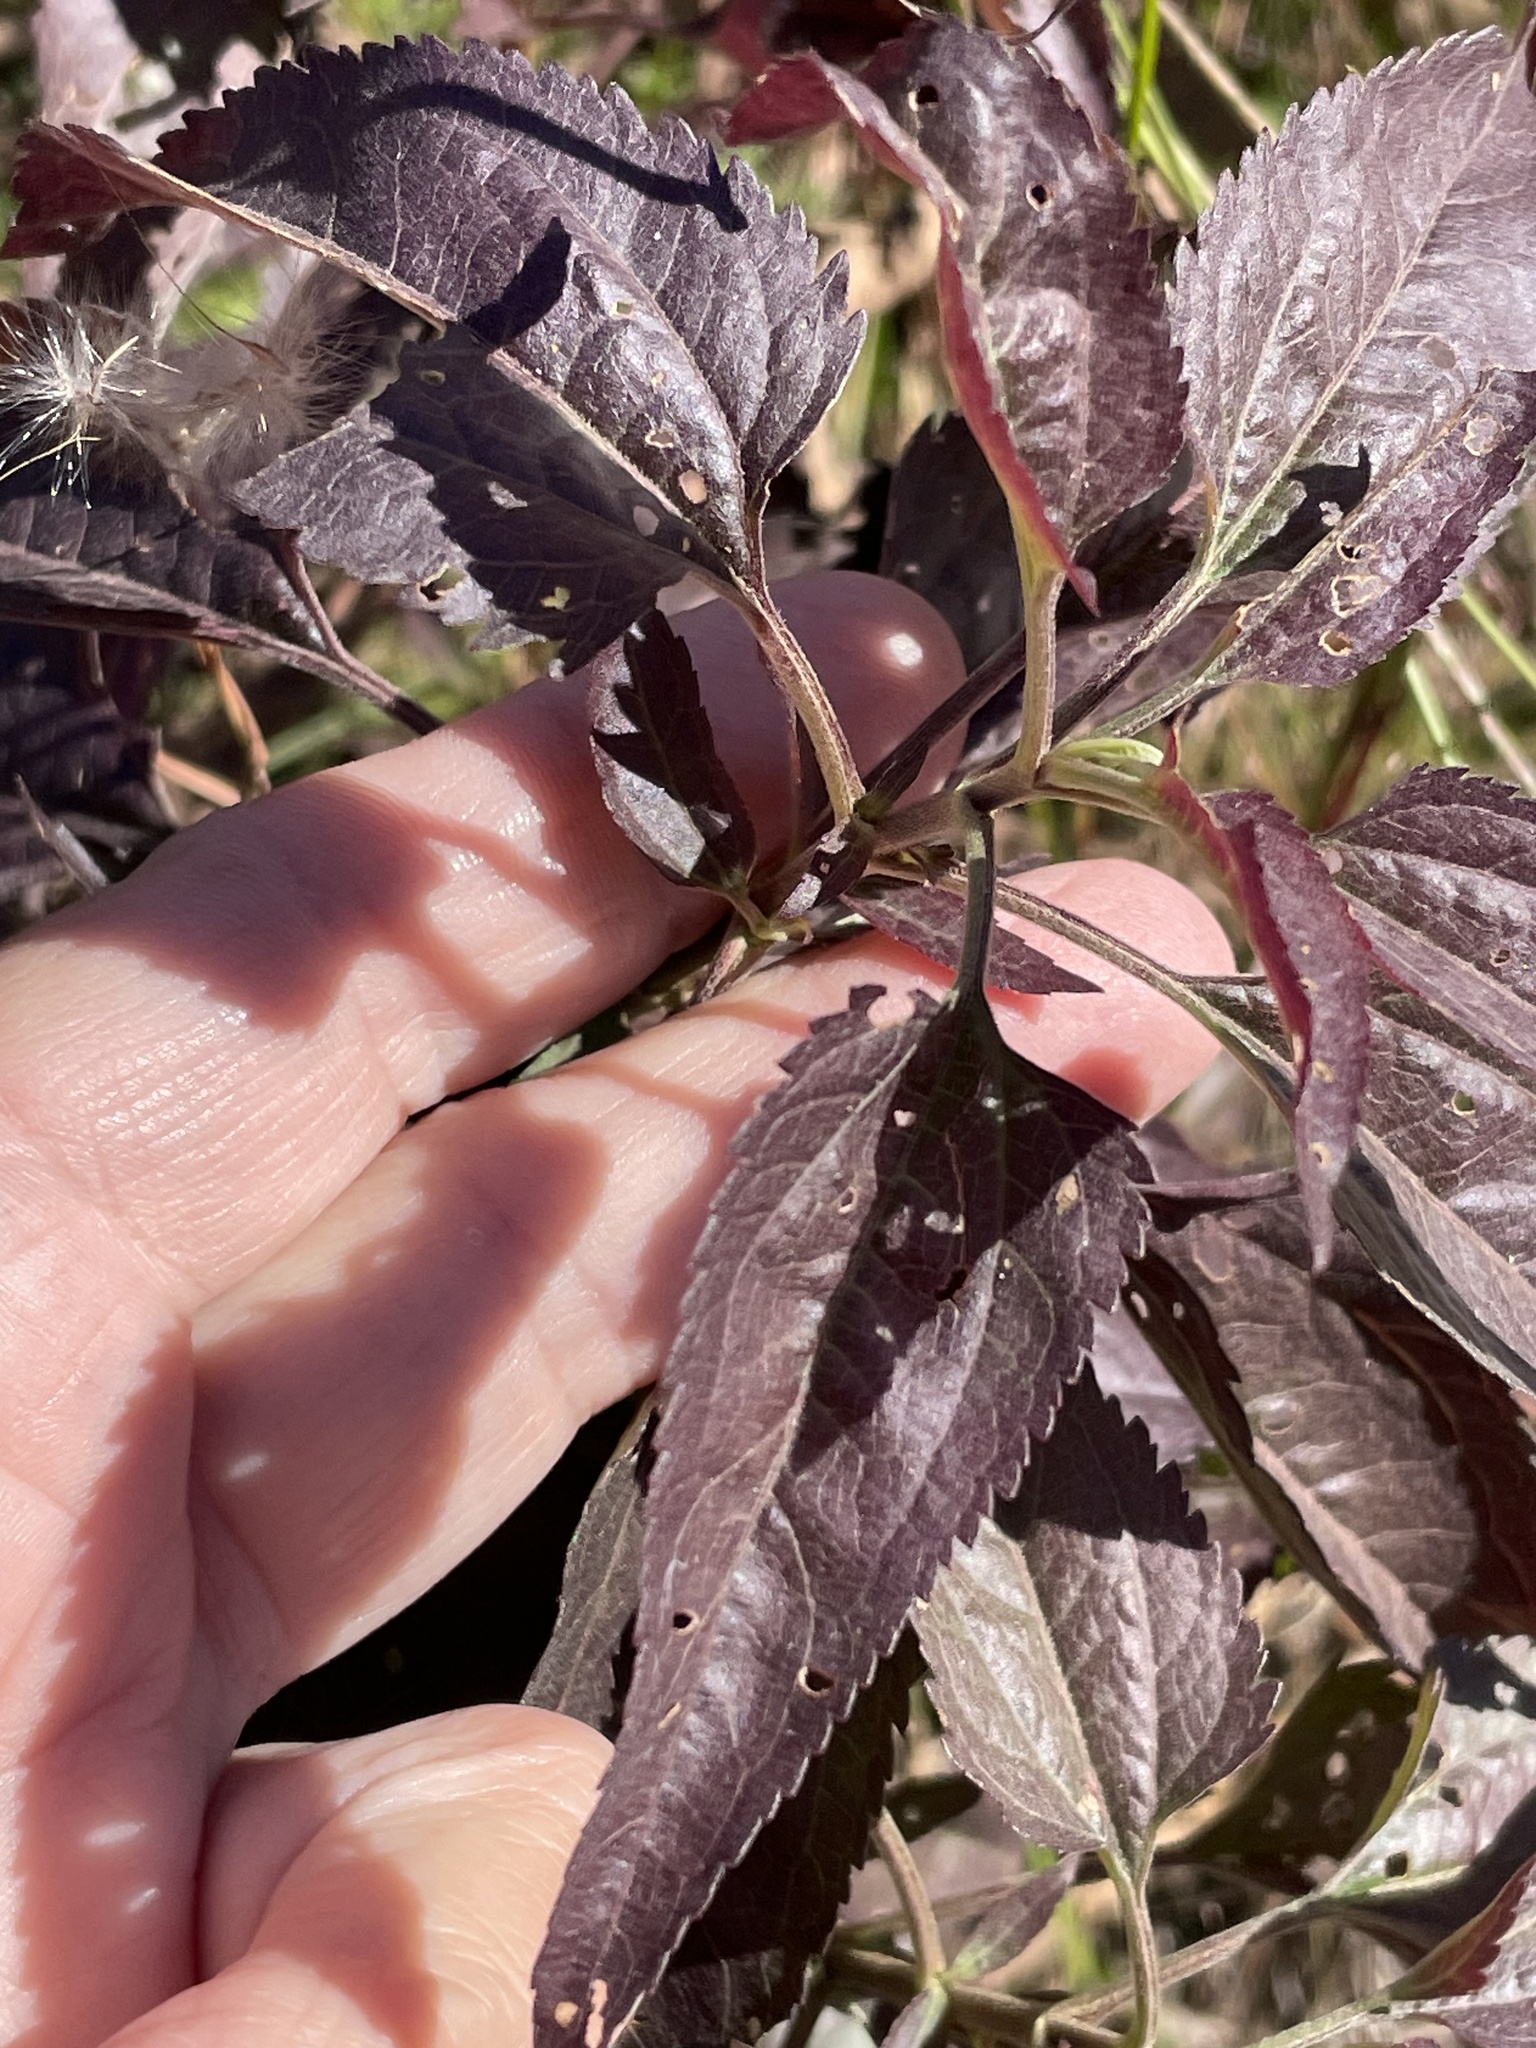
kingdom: Plantae
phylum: Tracheophyta
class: Magnoliopsida
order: Asterales
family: Asteraceae
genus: Eupatorium
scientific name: Eupatorium serotinum
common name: Late boneset
